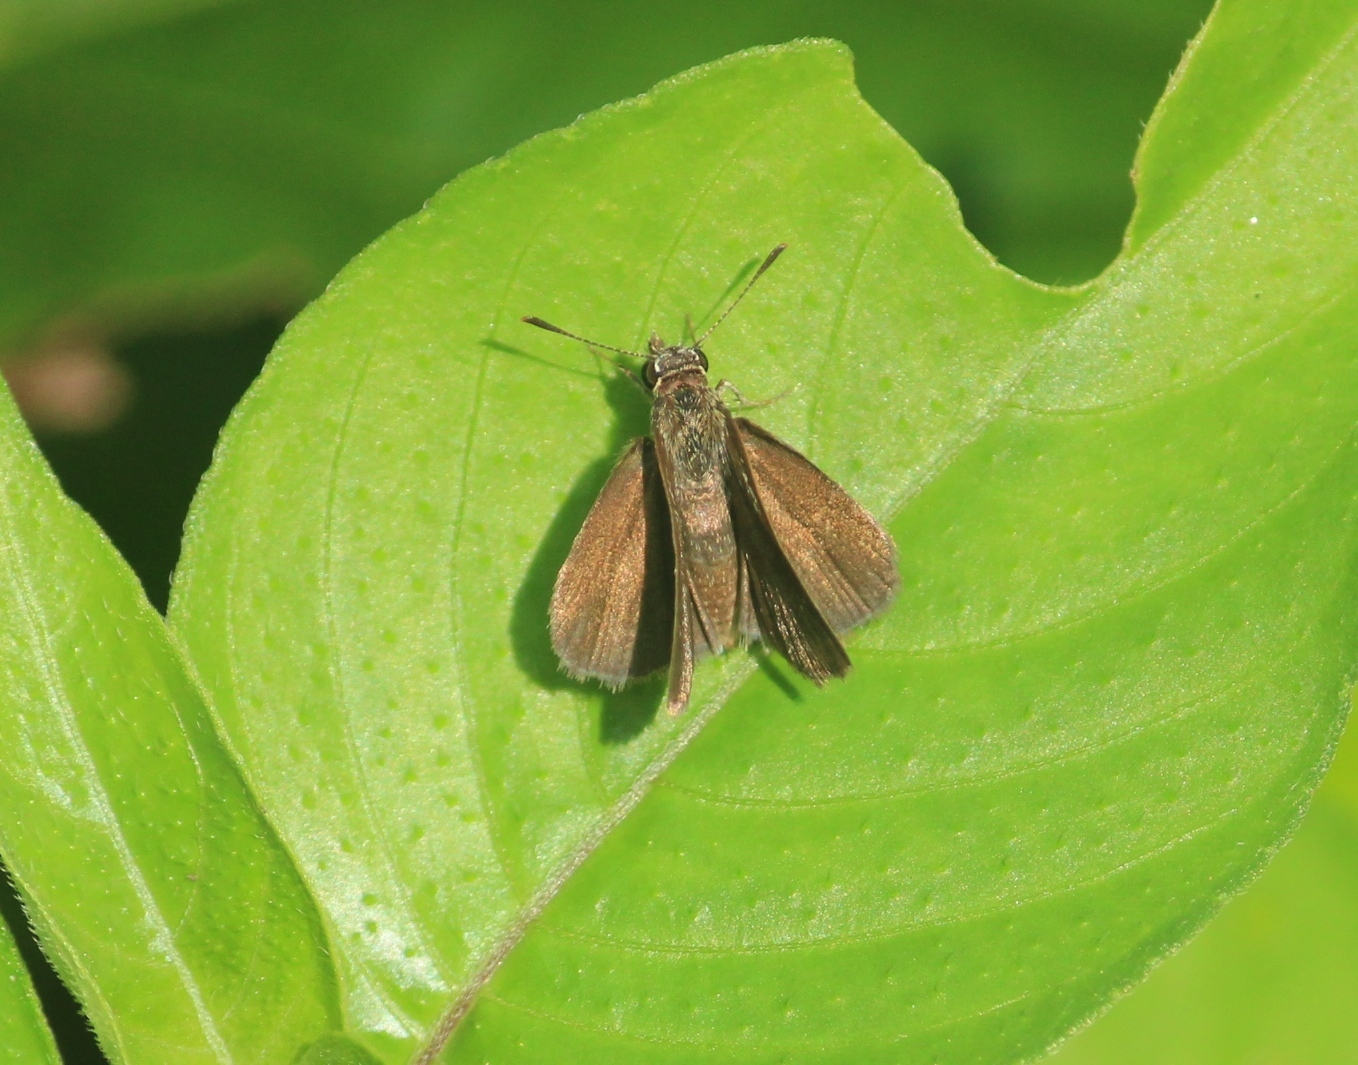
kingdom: Animalia
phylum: Arthropoda
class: Insecta
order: Lepidoptera
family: Hesperiidae
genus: Aeromachus
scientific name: Aeromachus pygmaeus
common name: Pygmy scrub hopper
